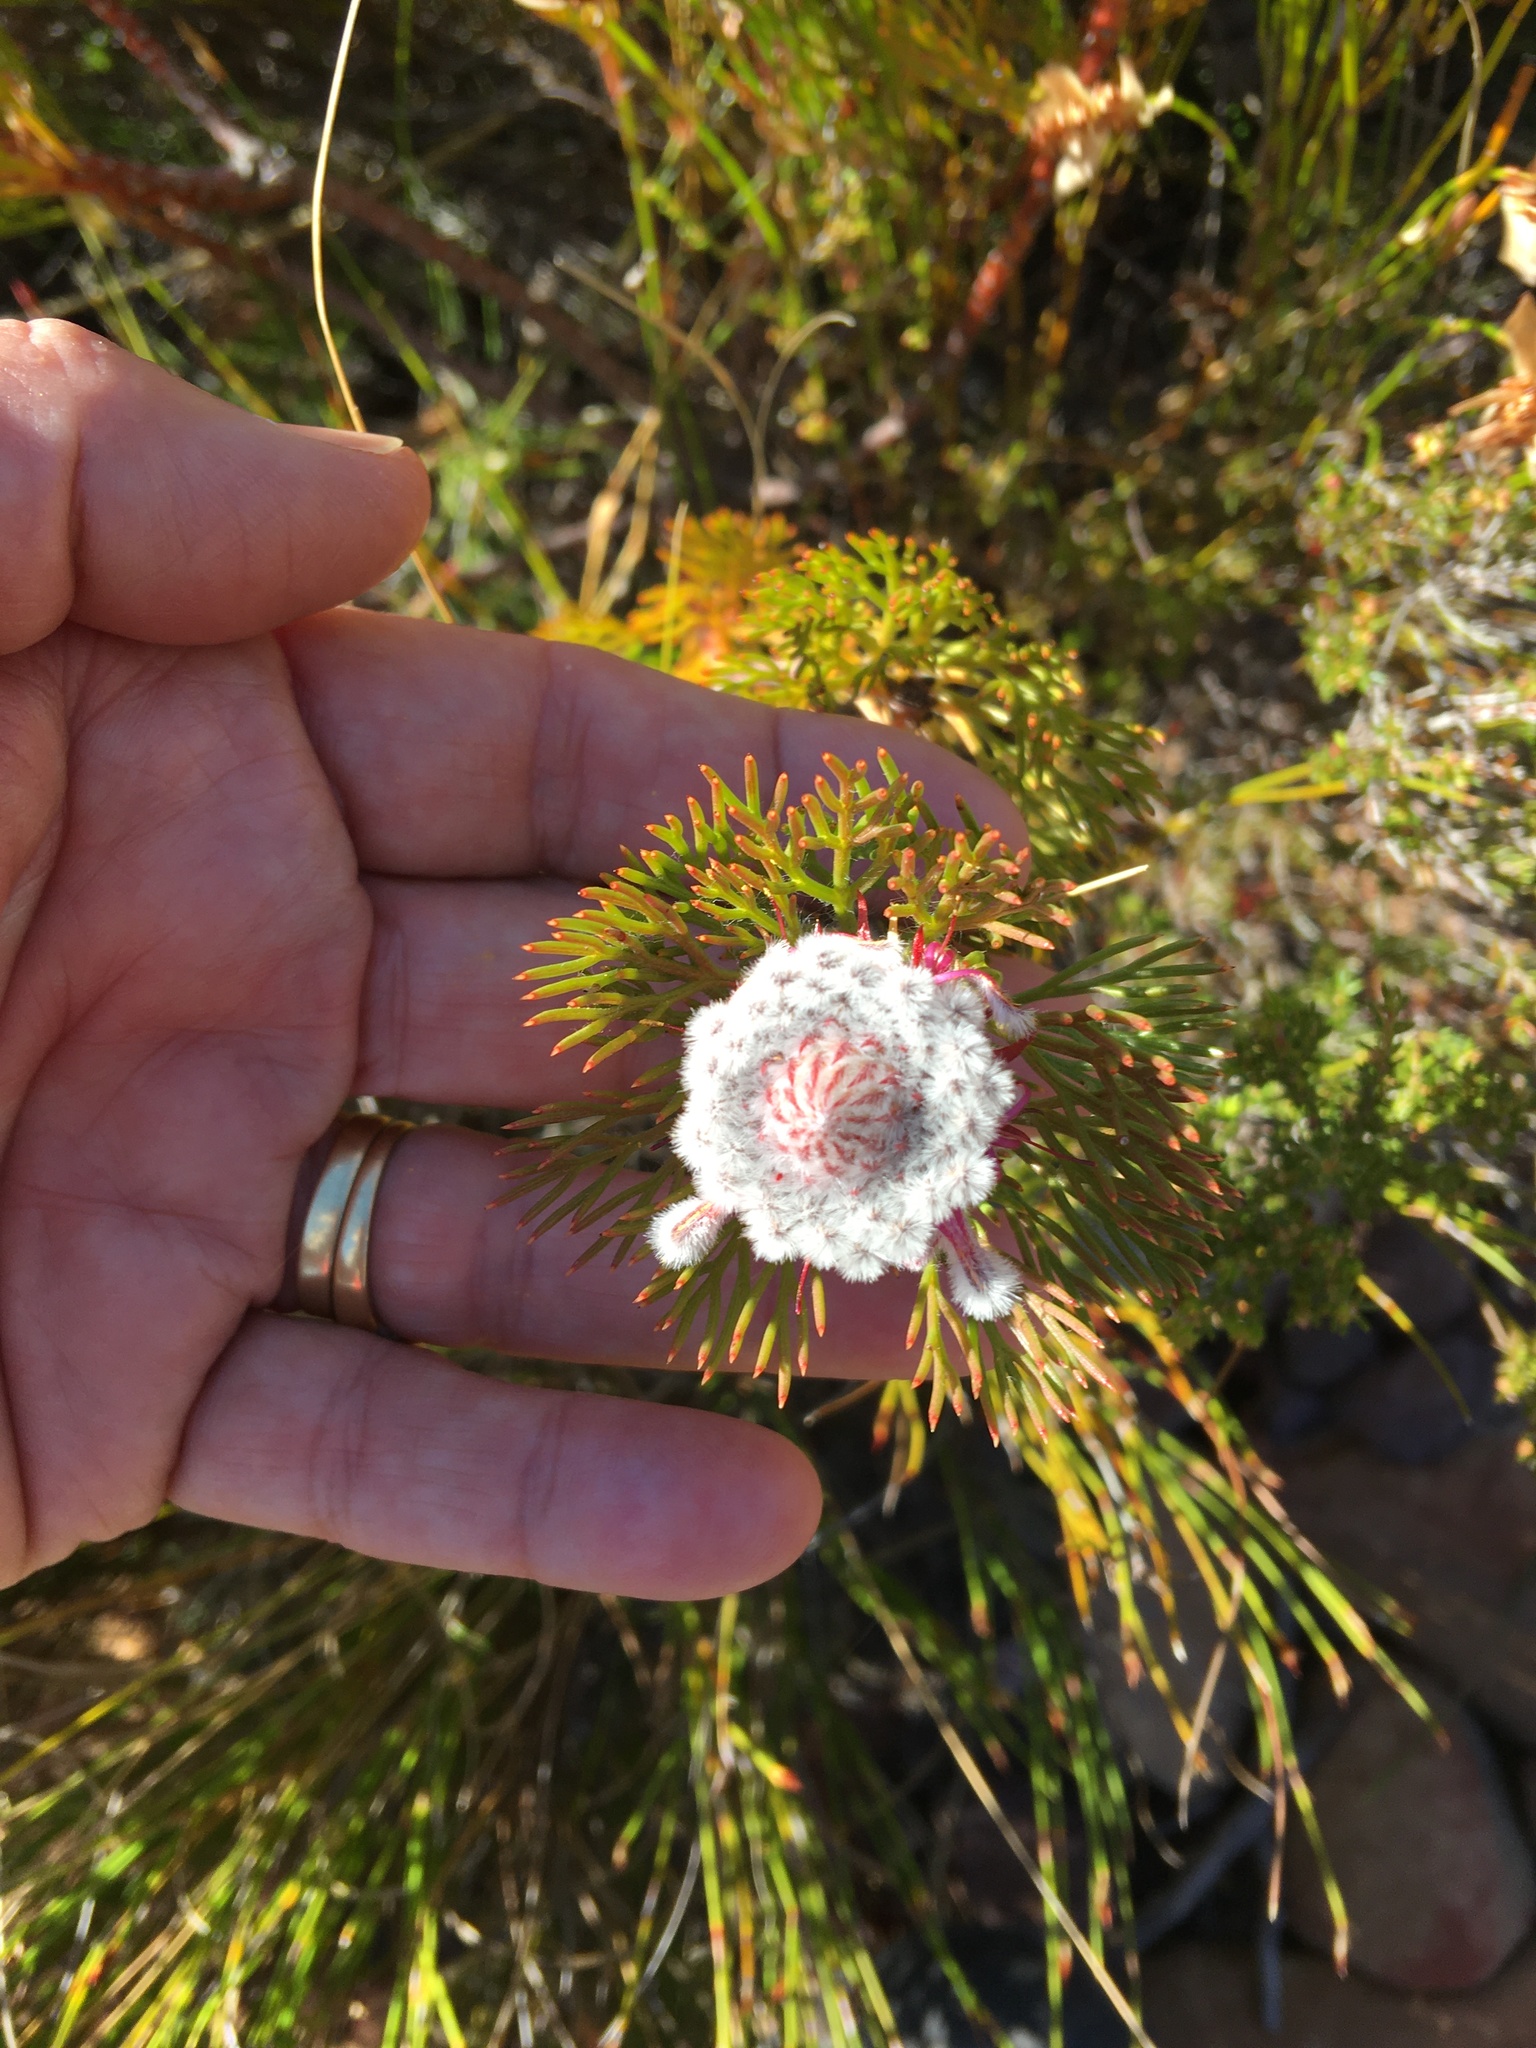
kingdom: Plantae
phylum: Tracheophyta
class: Magnoliopsida
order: Proteales
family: Proteaceae
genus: Serruria
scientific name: Serruria hirsuta
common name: Swartkops spiderhead
